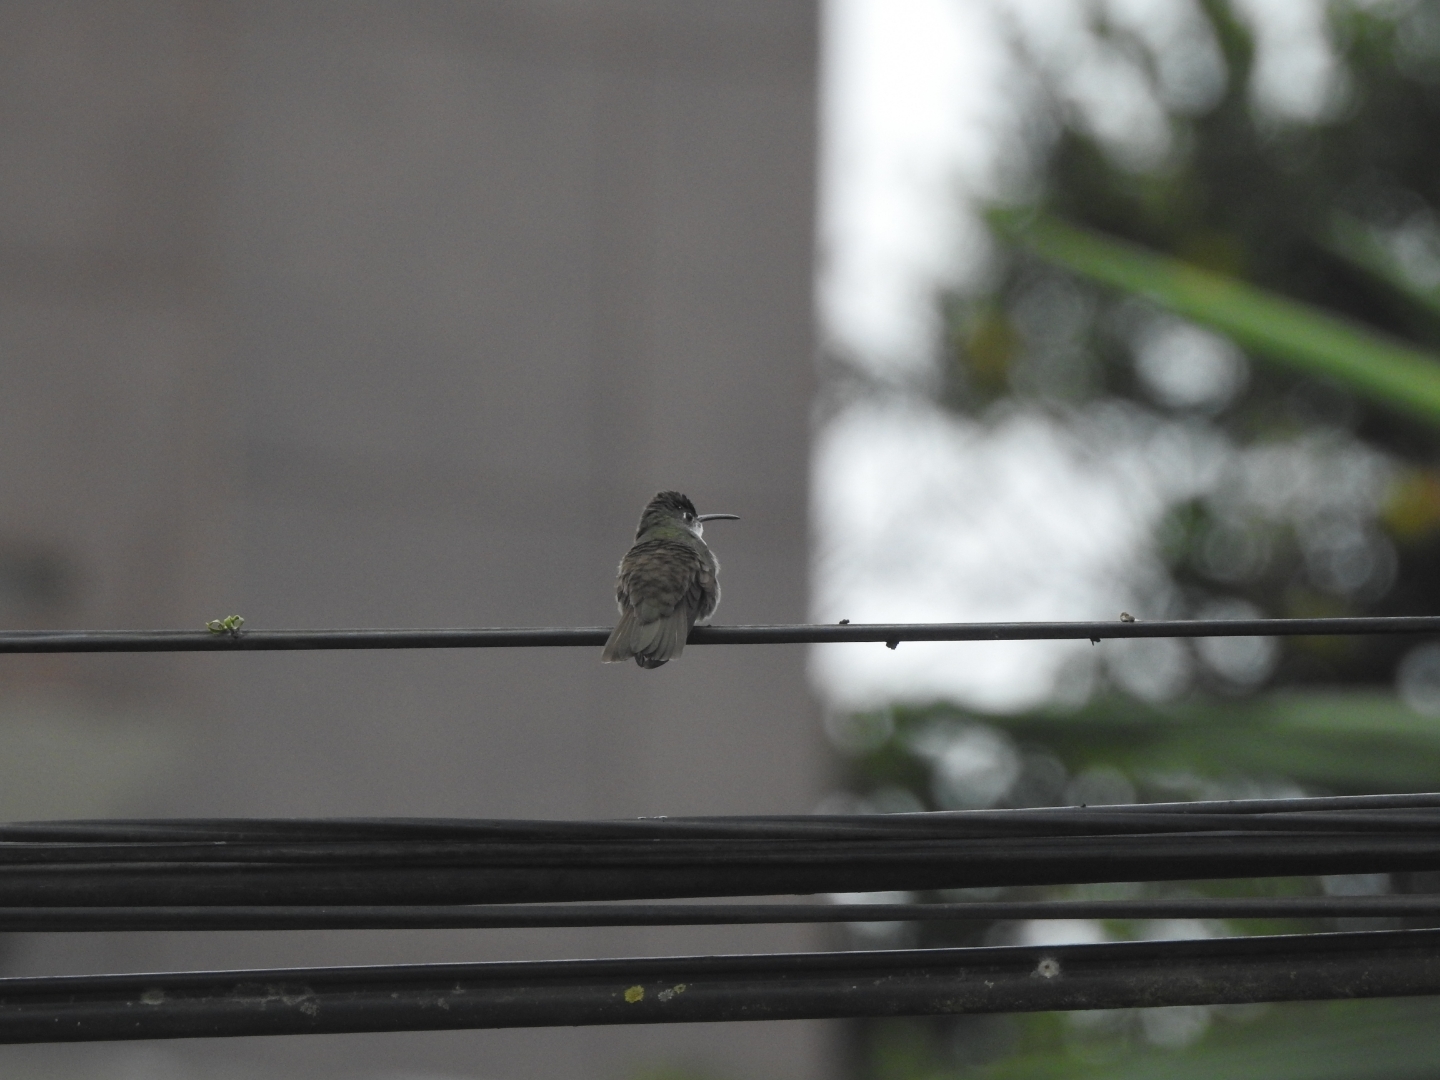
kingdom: Animalia
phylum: Chordata
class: Aves
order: Apodiformes
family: Trochilidae
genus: Saucerottia
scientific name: Saucerottia cyanocephala
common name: Azure-crowned hummingbird
